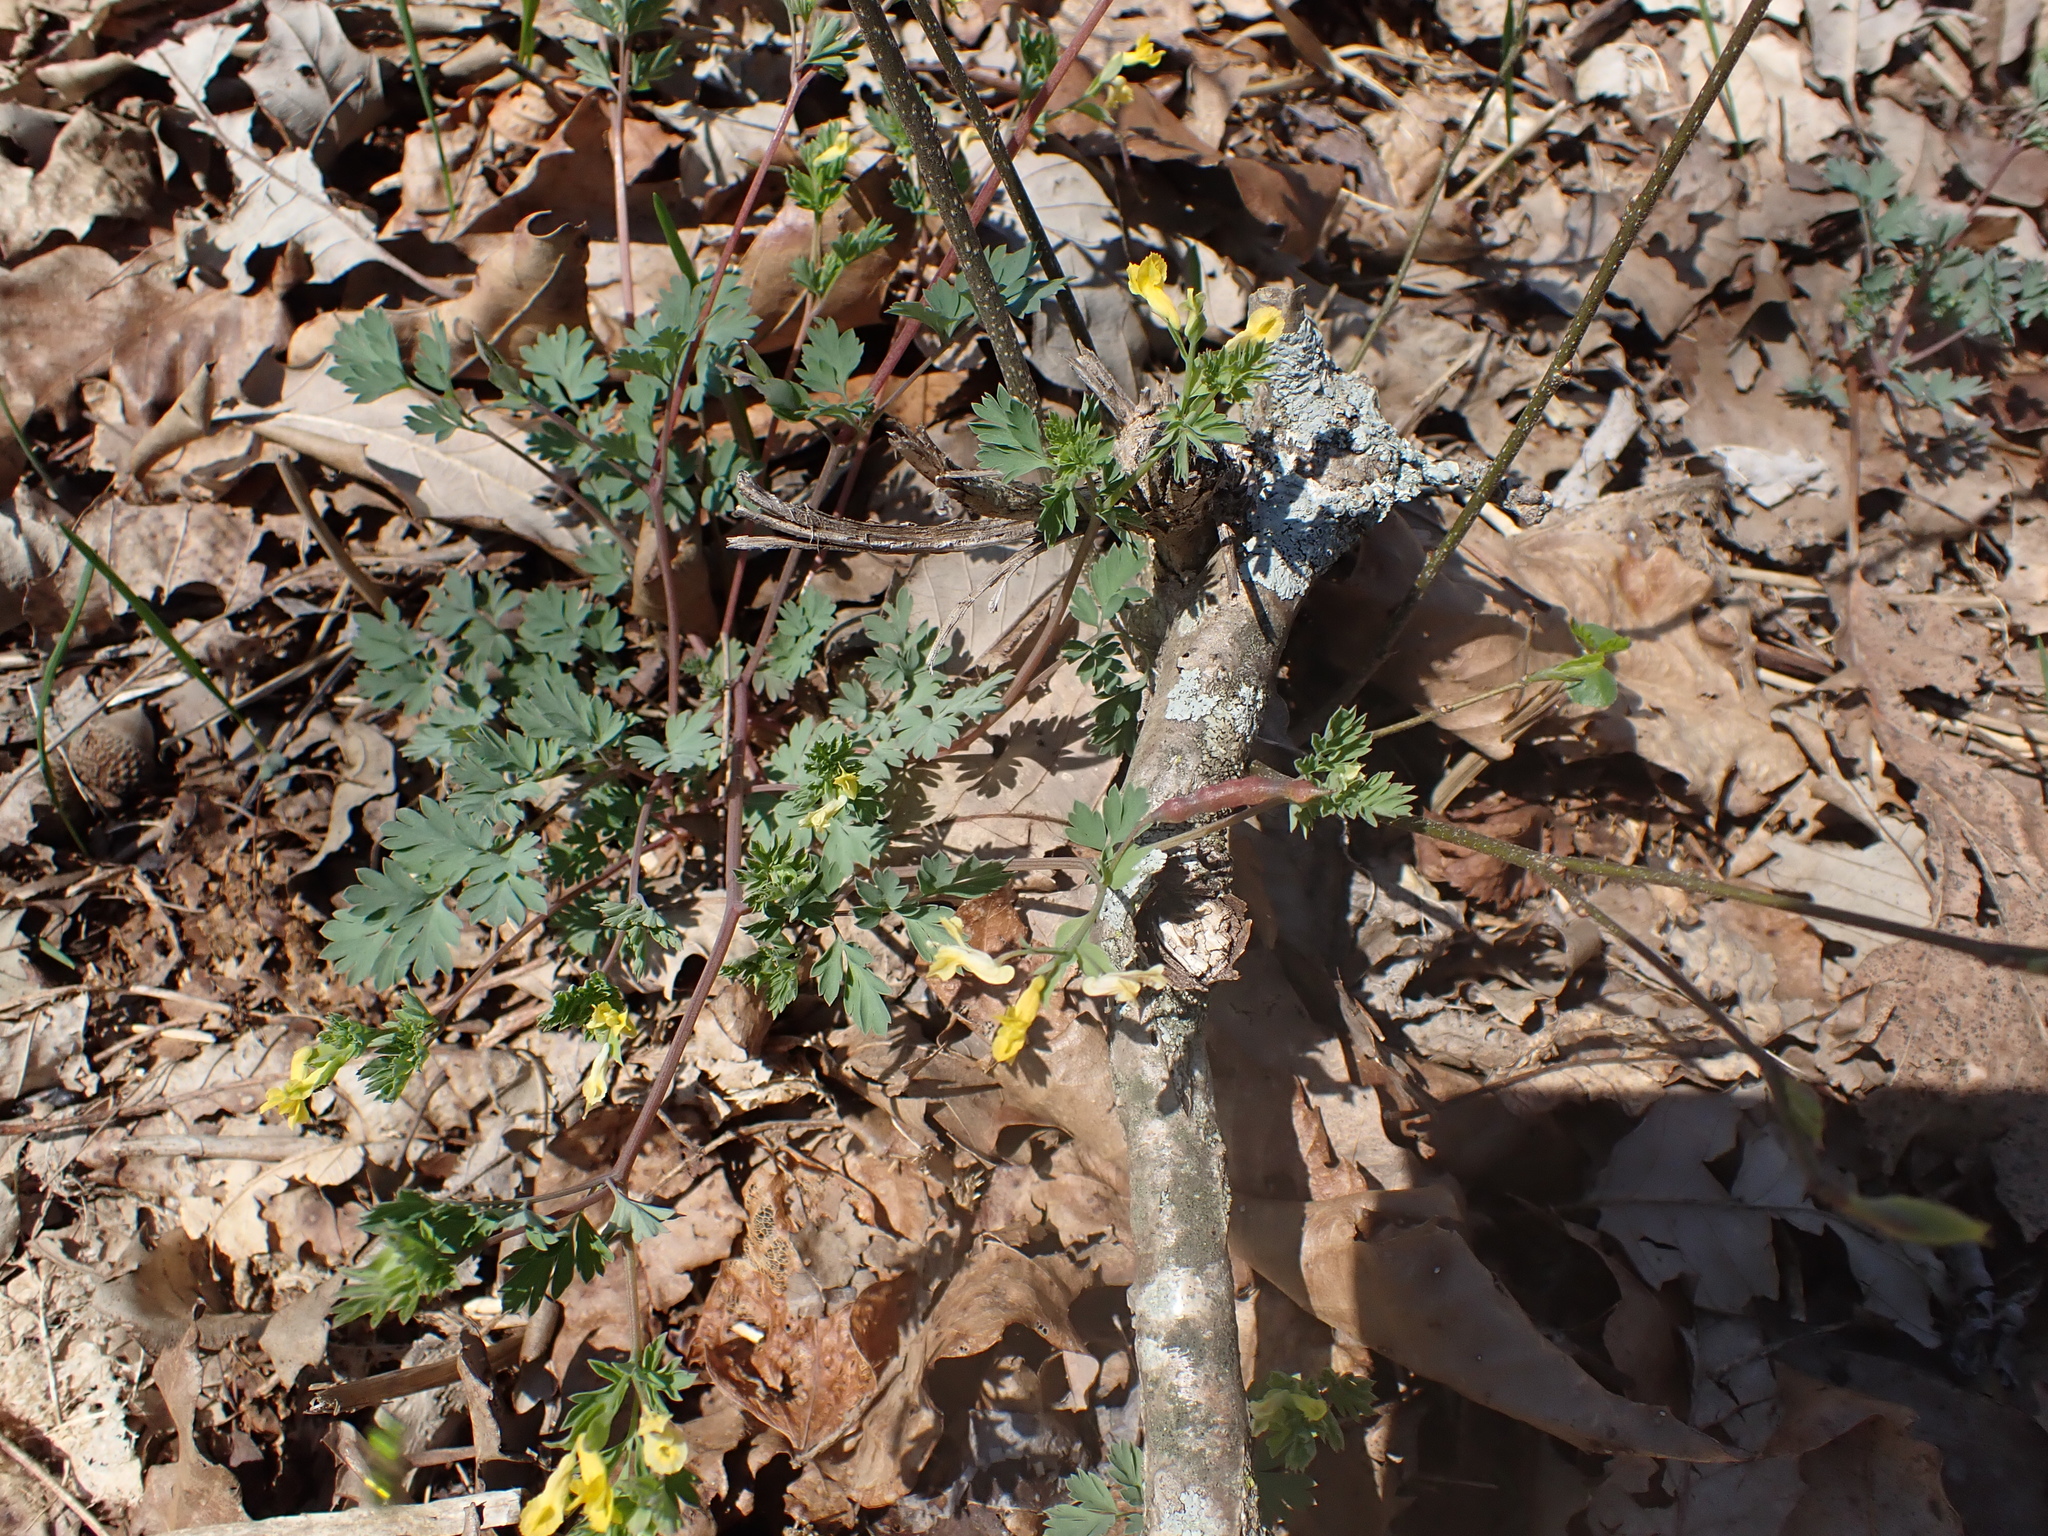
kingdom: Plantae
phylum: Tracheophyta
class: Magnoliopsida
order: Ranunculales
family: Papaveraceae
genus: Corydalis
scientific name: Corydalis flavula
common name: Yellow corydalis
